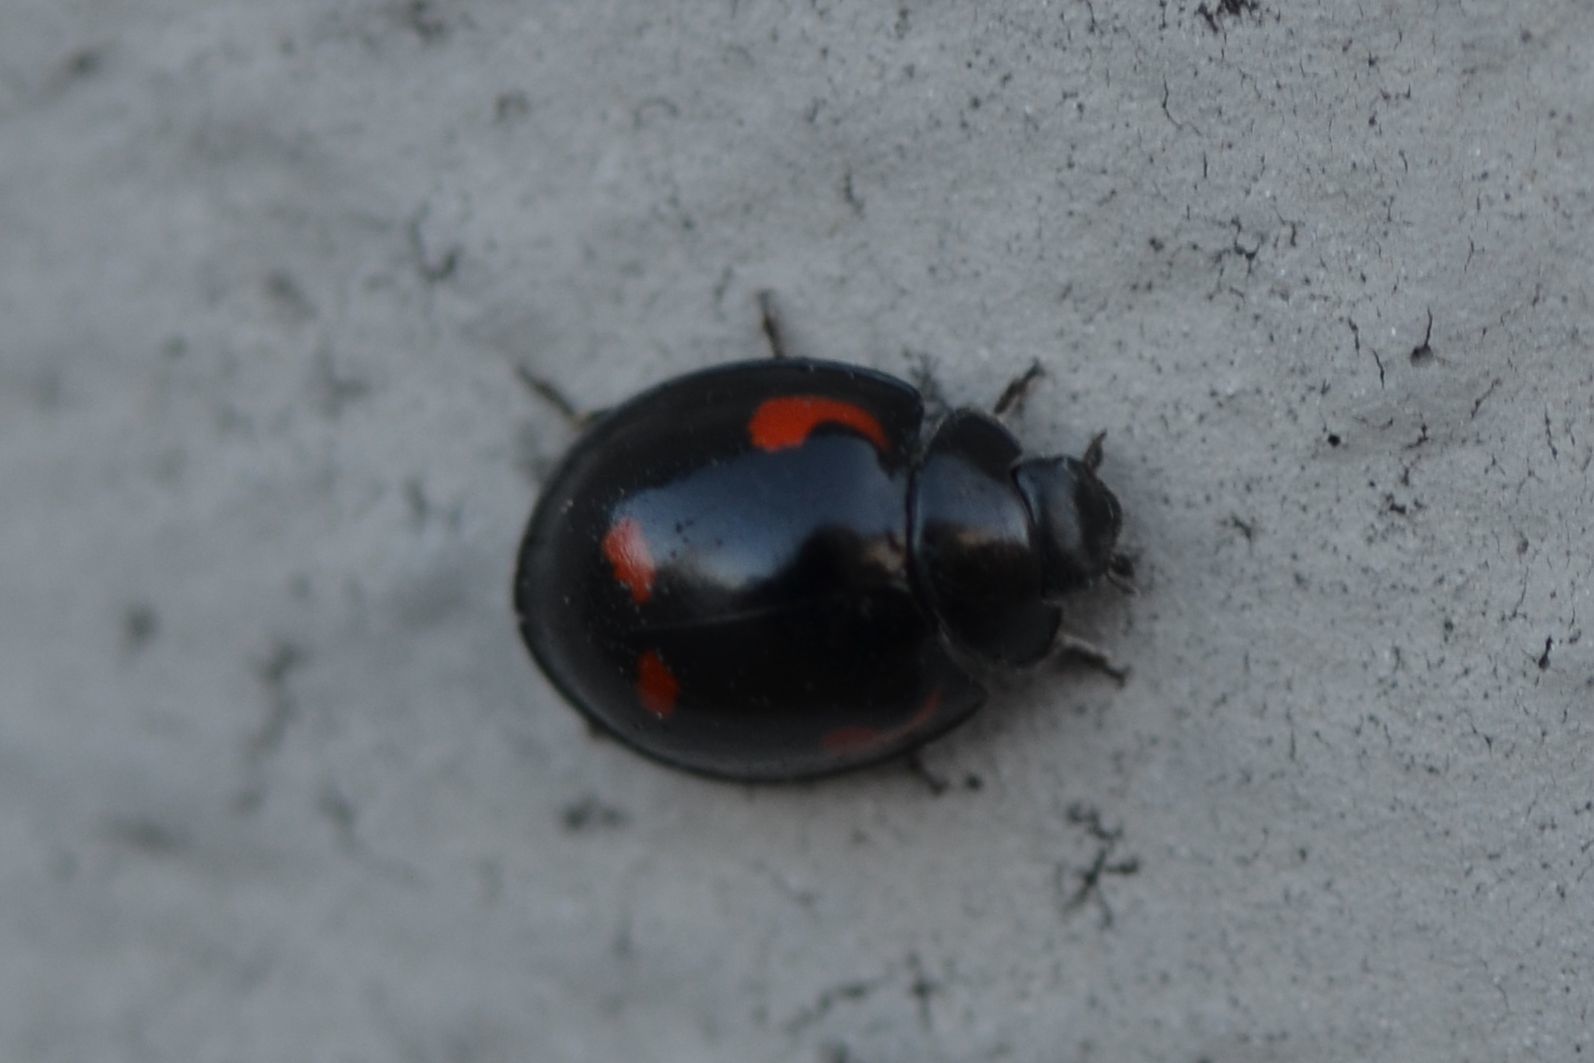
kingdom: Animalia
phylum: Arthropoda
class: Insecta
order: Coleoptera
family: Coccinellidae
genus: Brumus
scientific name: Brumus quadripustulatus
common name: Ladybird beetle
